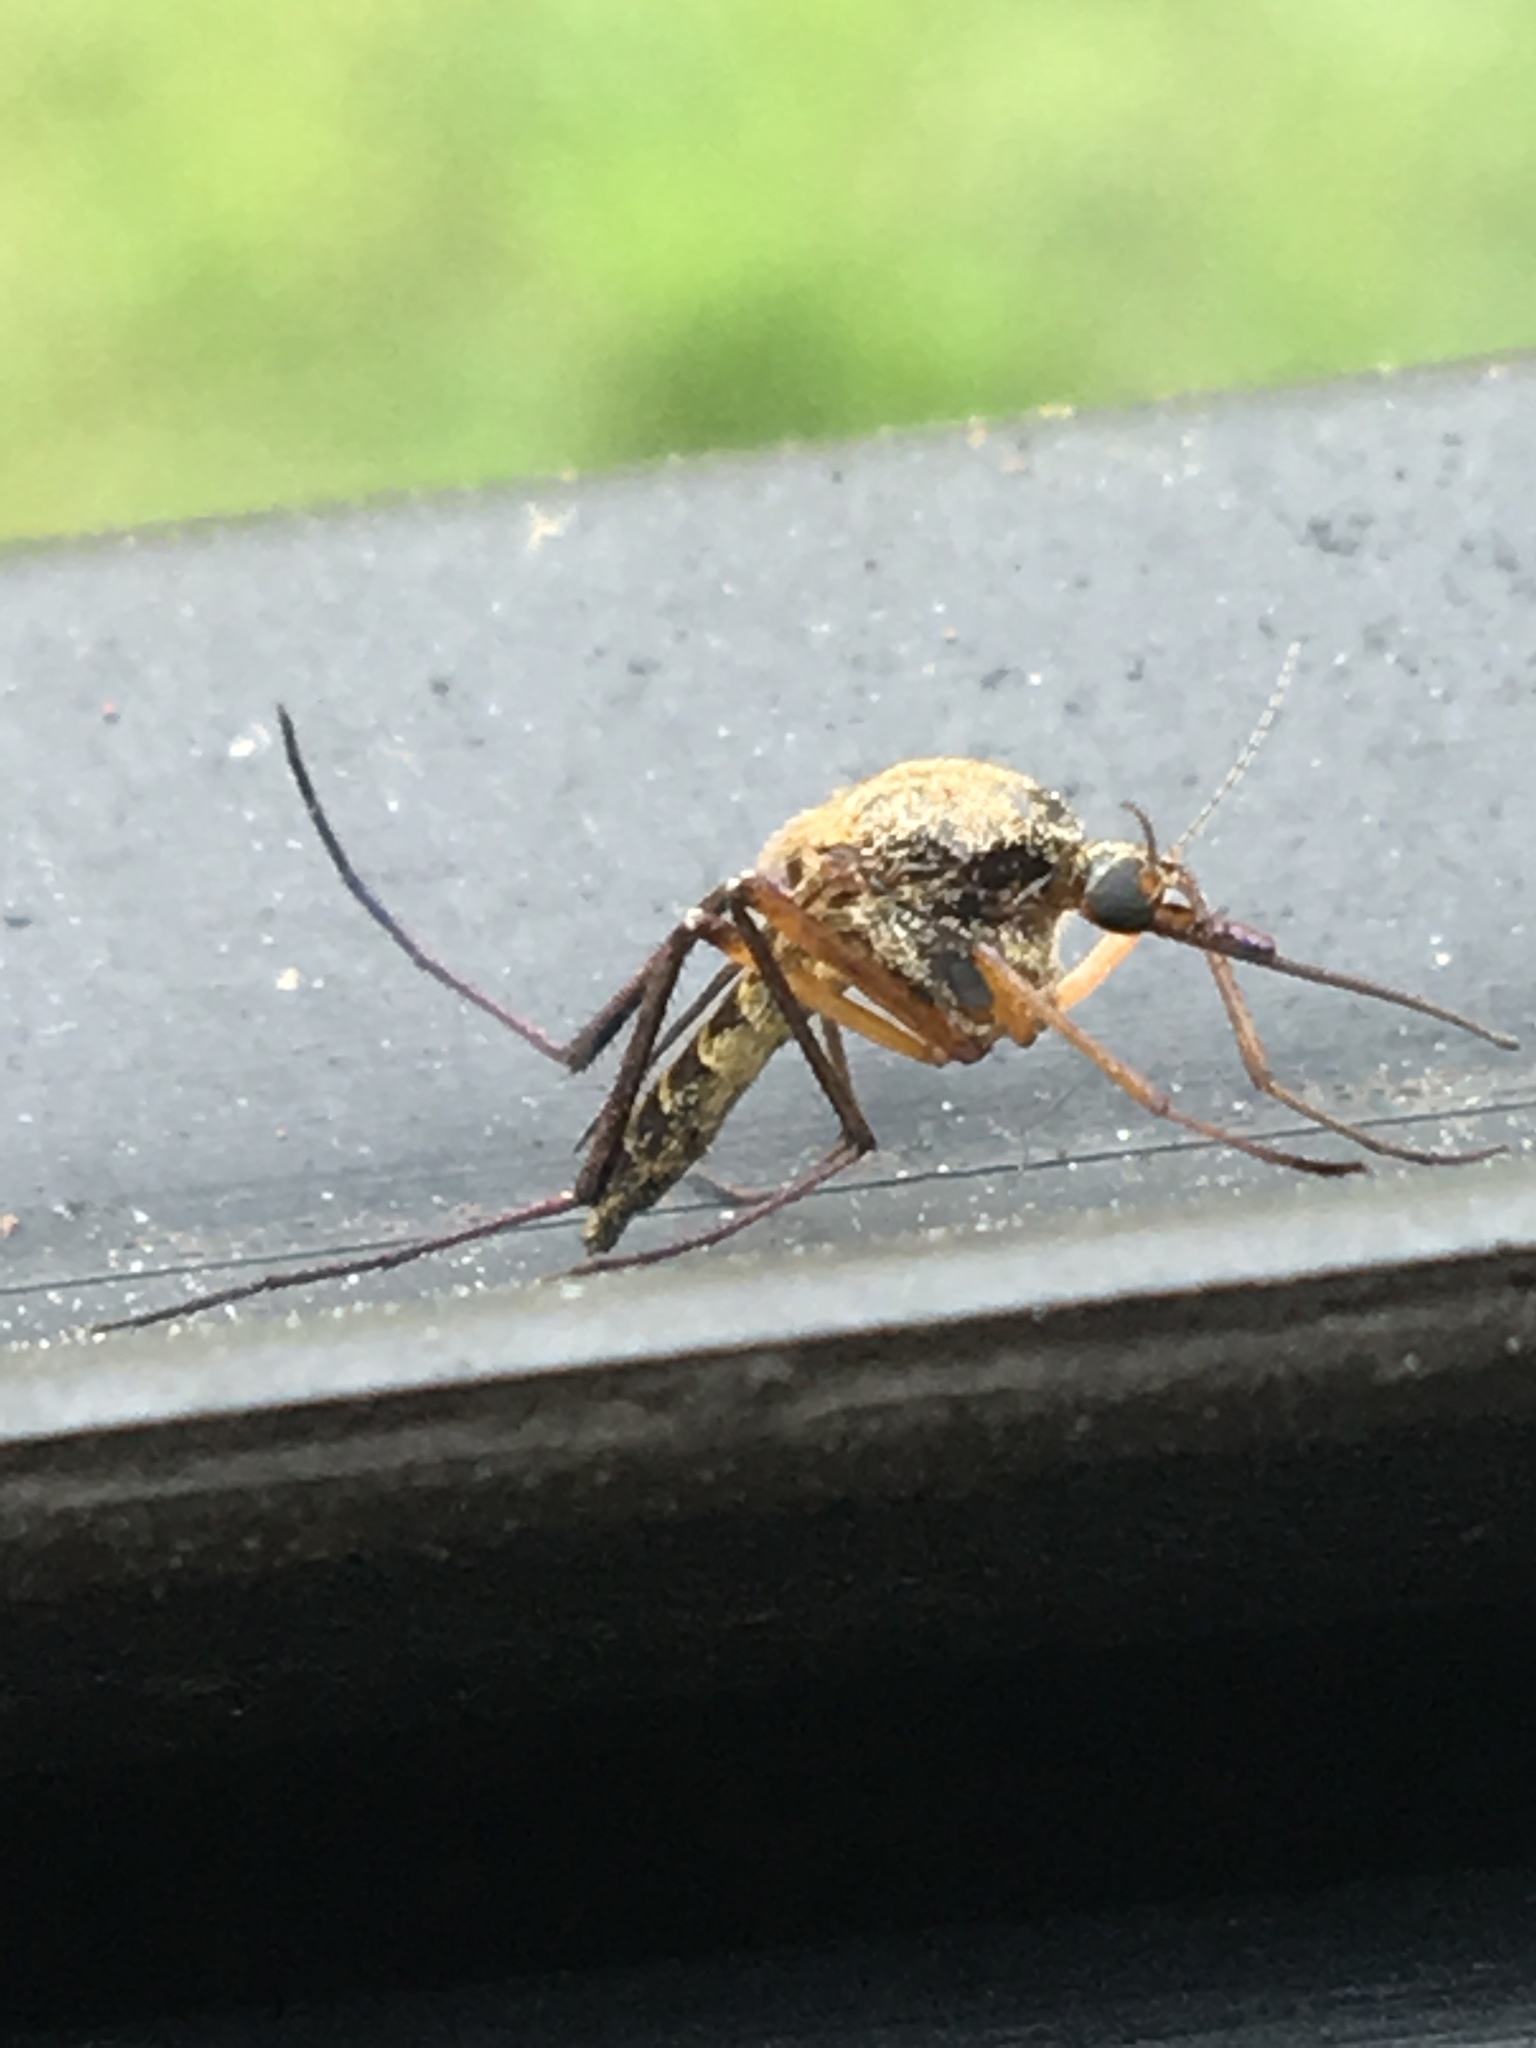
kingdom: Animalia
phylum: Arthropoda
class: Insecta
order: Diptera
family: Culicidae
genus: Psorophora
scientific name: Psorophora cyanescens
